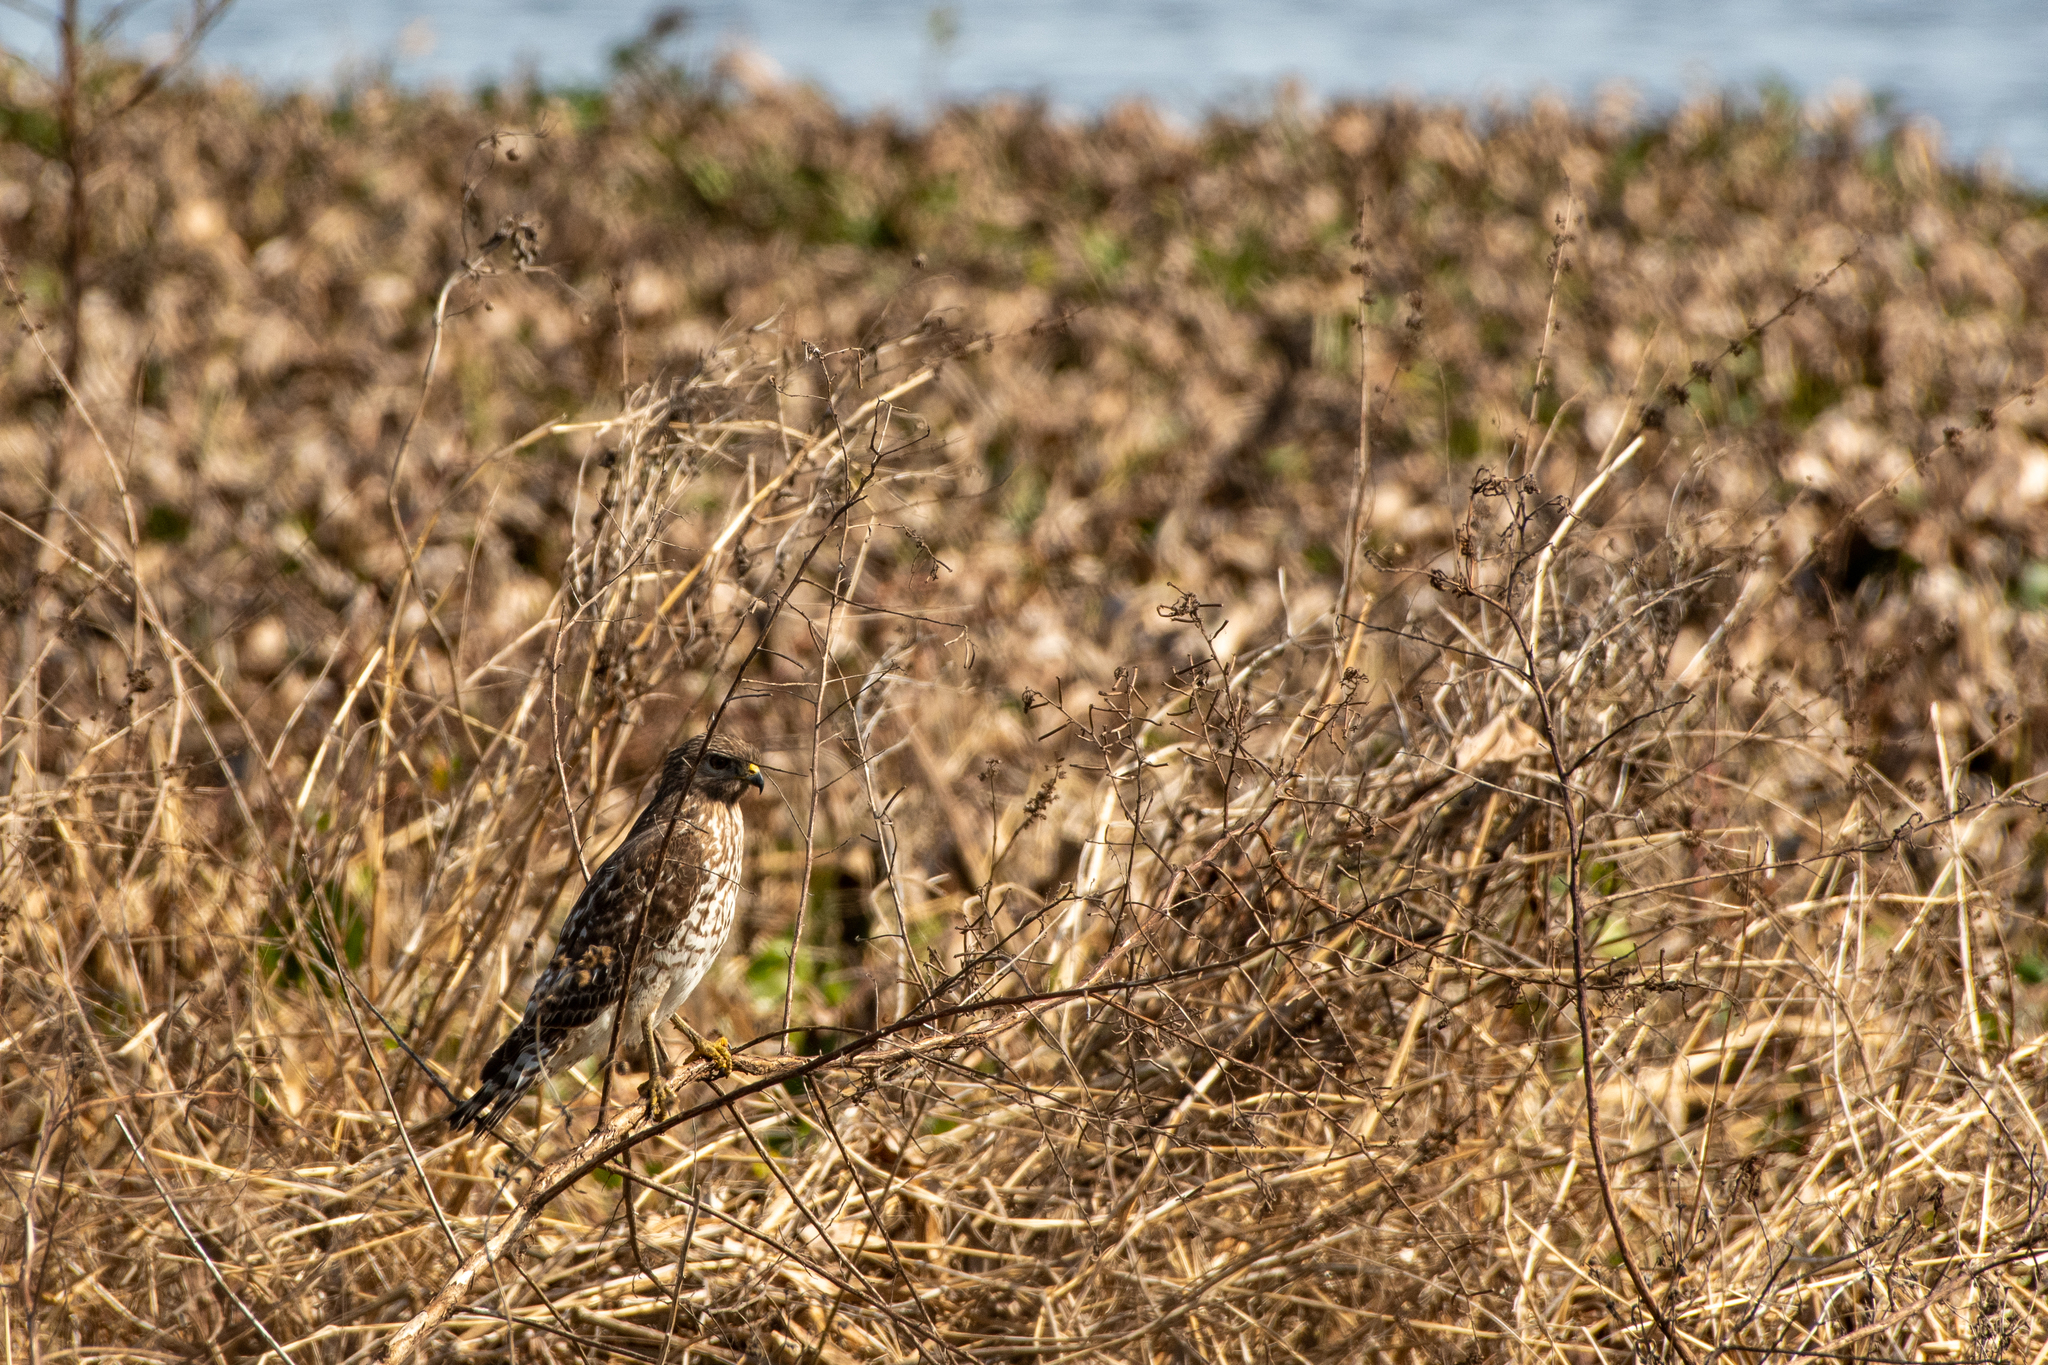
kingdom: Animalia
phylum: Chordata
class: Aves
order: Accipitriformes
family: Accipitridae
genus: Buteo
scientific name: Buteo lineatus
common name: Red-shouldered hawk
